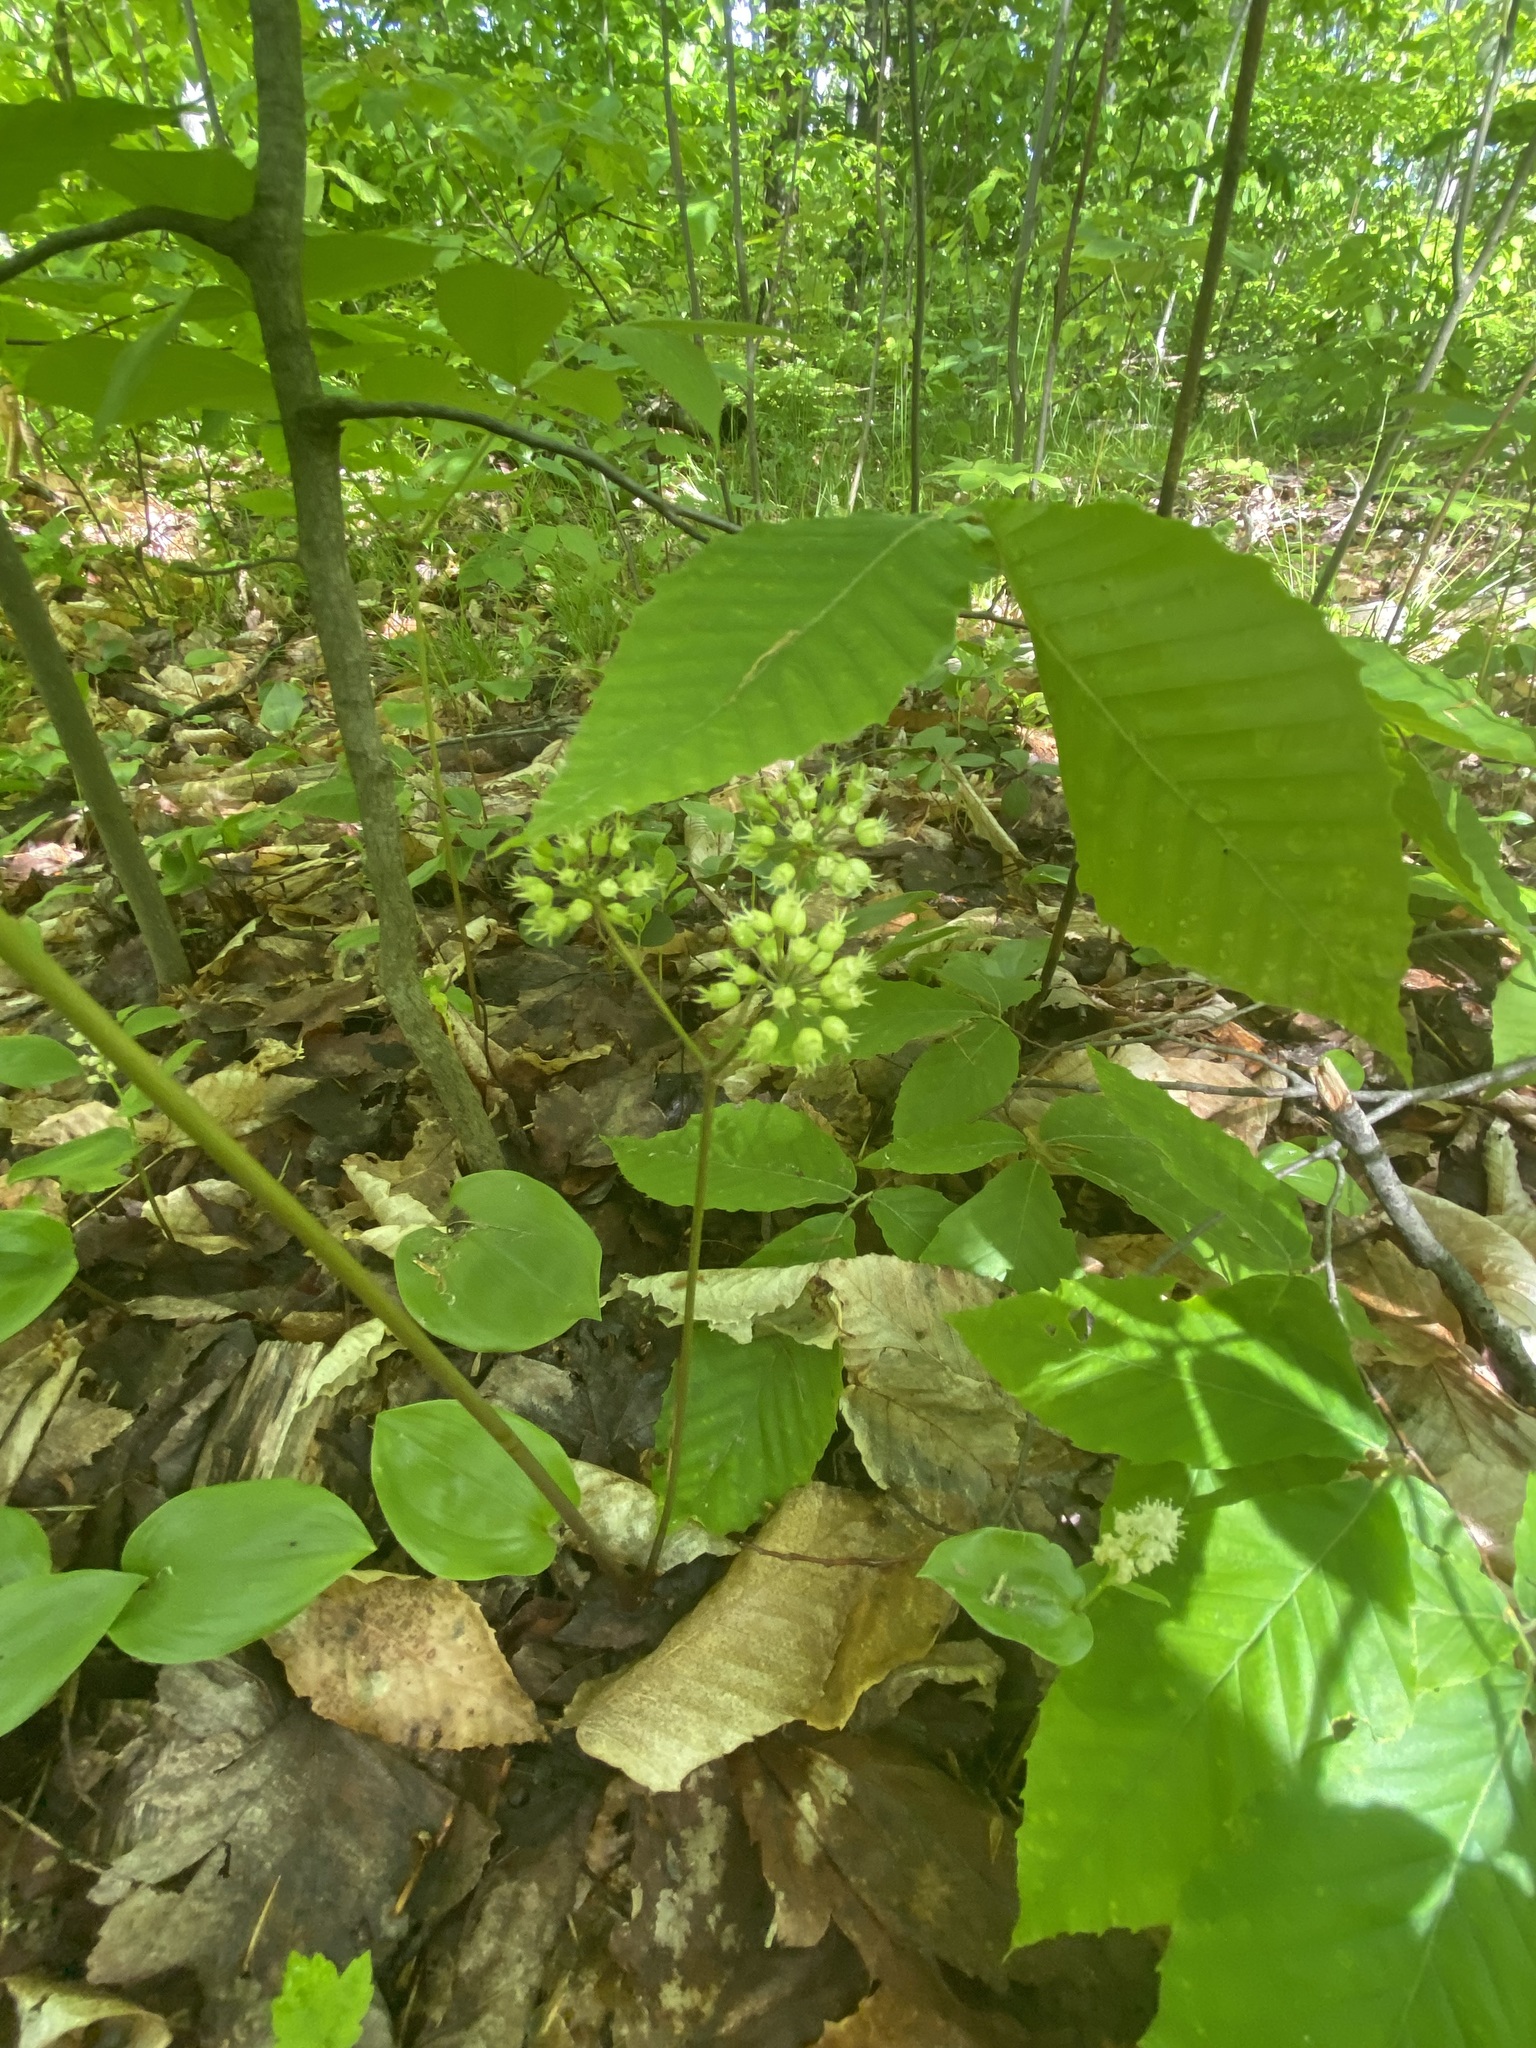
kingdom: Plantae
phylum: Tracheophyta
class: Magnoliopsida
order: Apiales
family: Araliaceae
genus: Aralia
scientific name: Aralia nudicaulis
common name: Wild sarsaparilla
